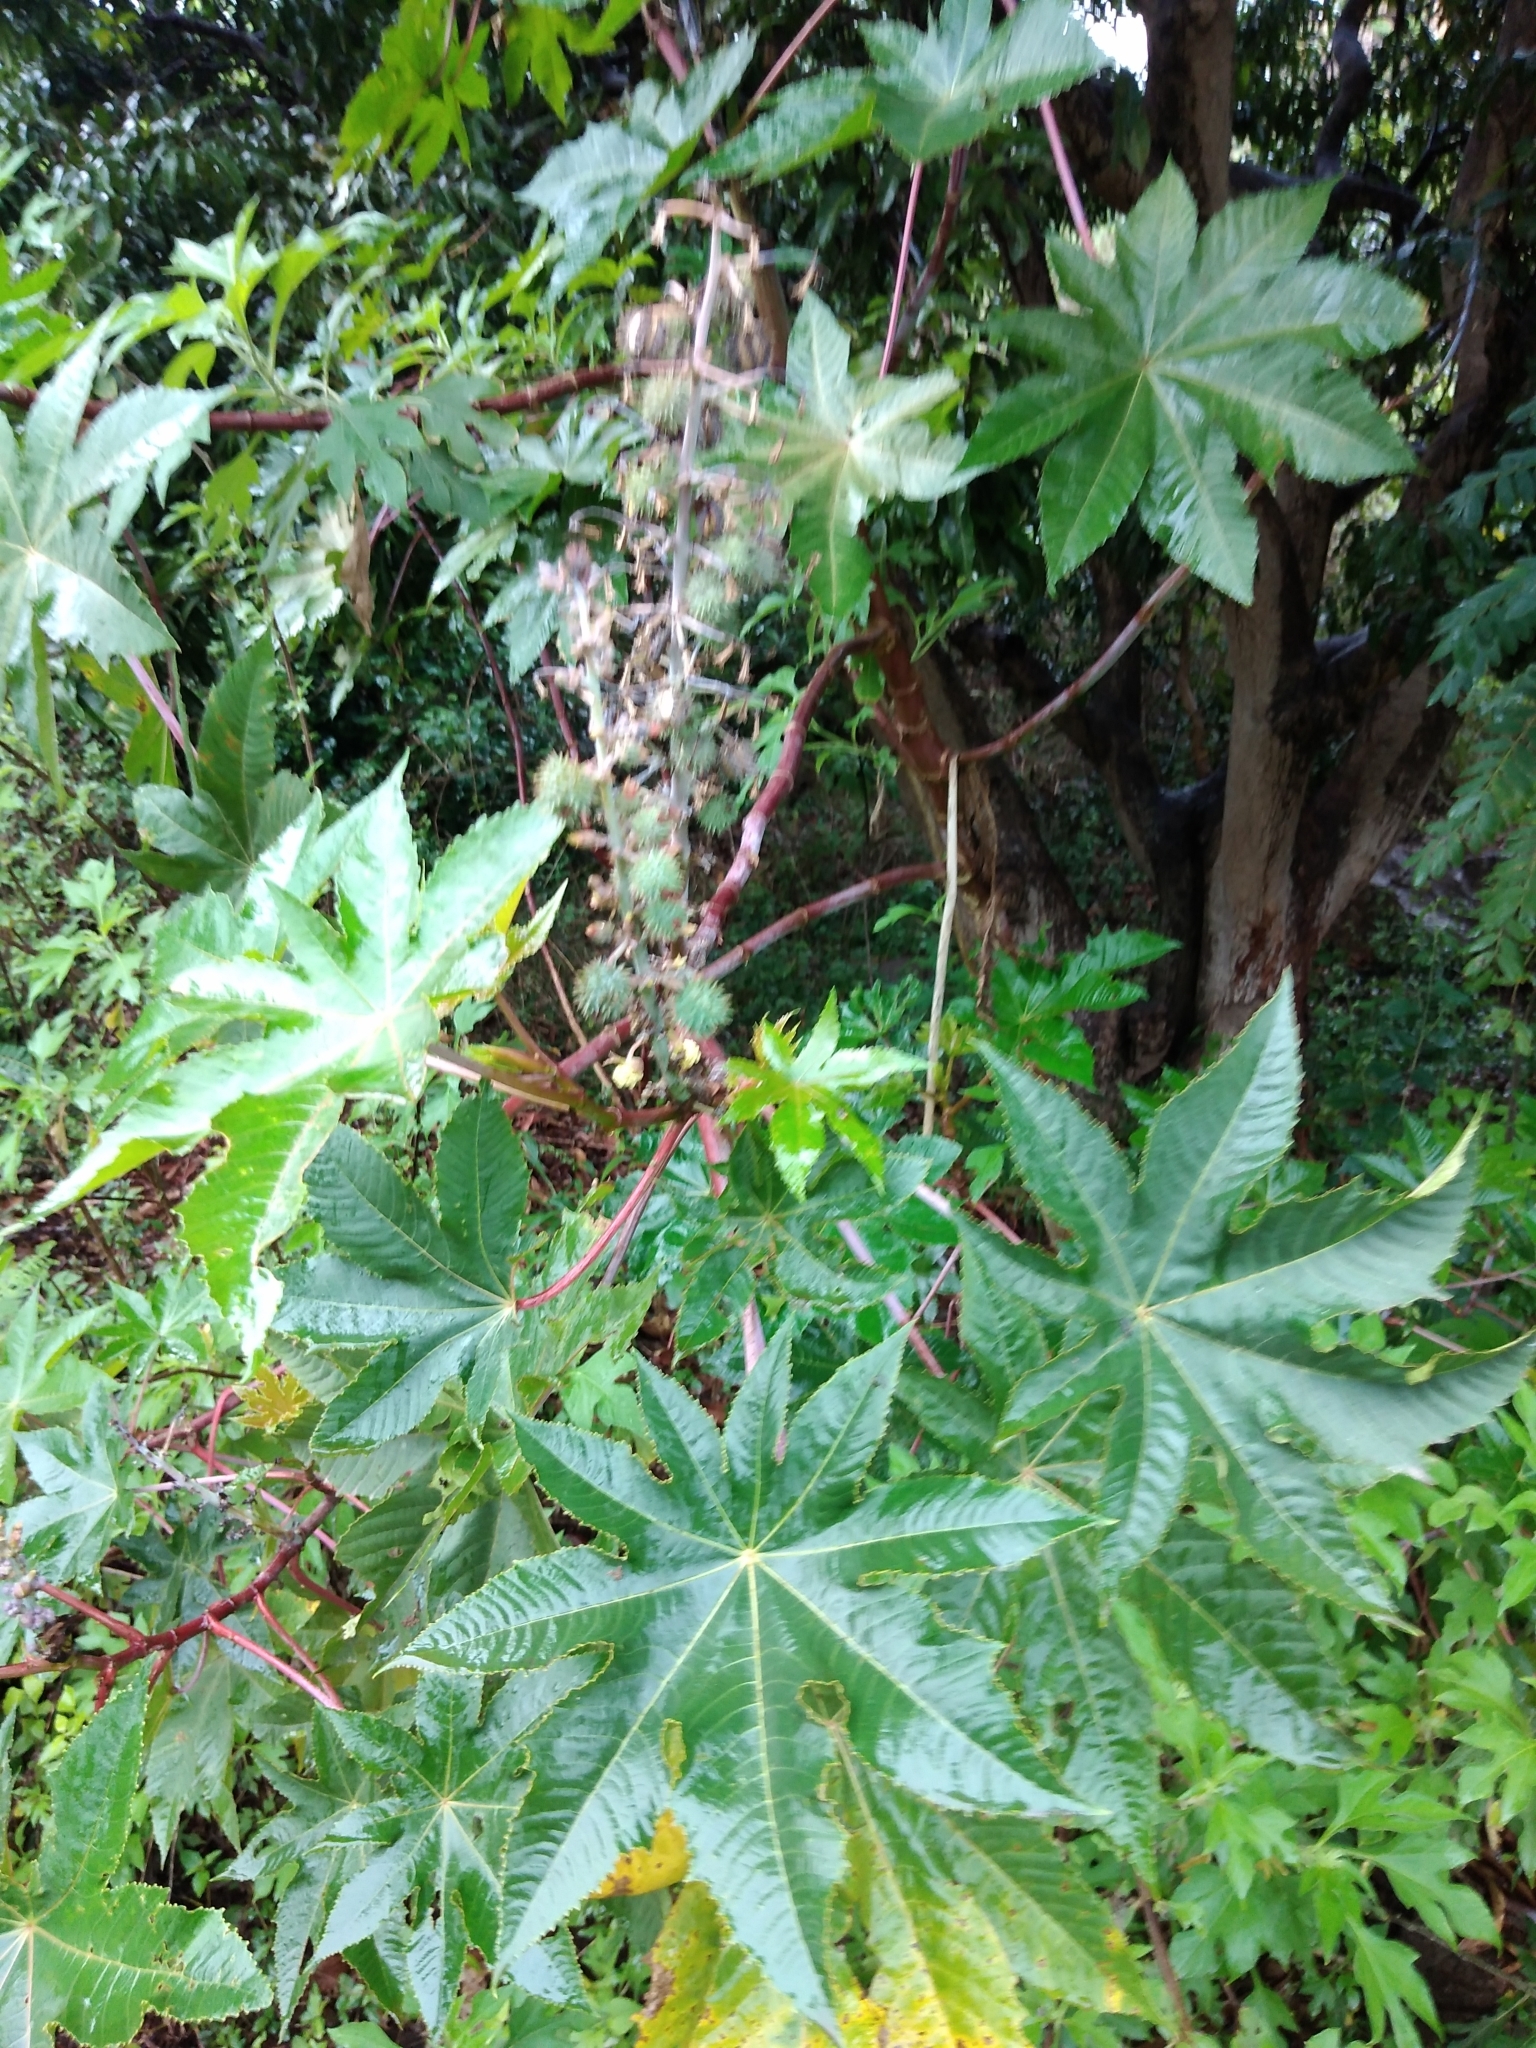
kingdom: Plantae
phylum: Tracheophyta
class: Magnoliopsida
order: Malpighiales
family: Euphorbiaceae
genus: Ricinus
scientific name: Ricinus communis
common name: Castor-oil-plant
